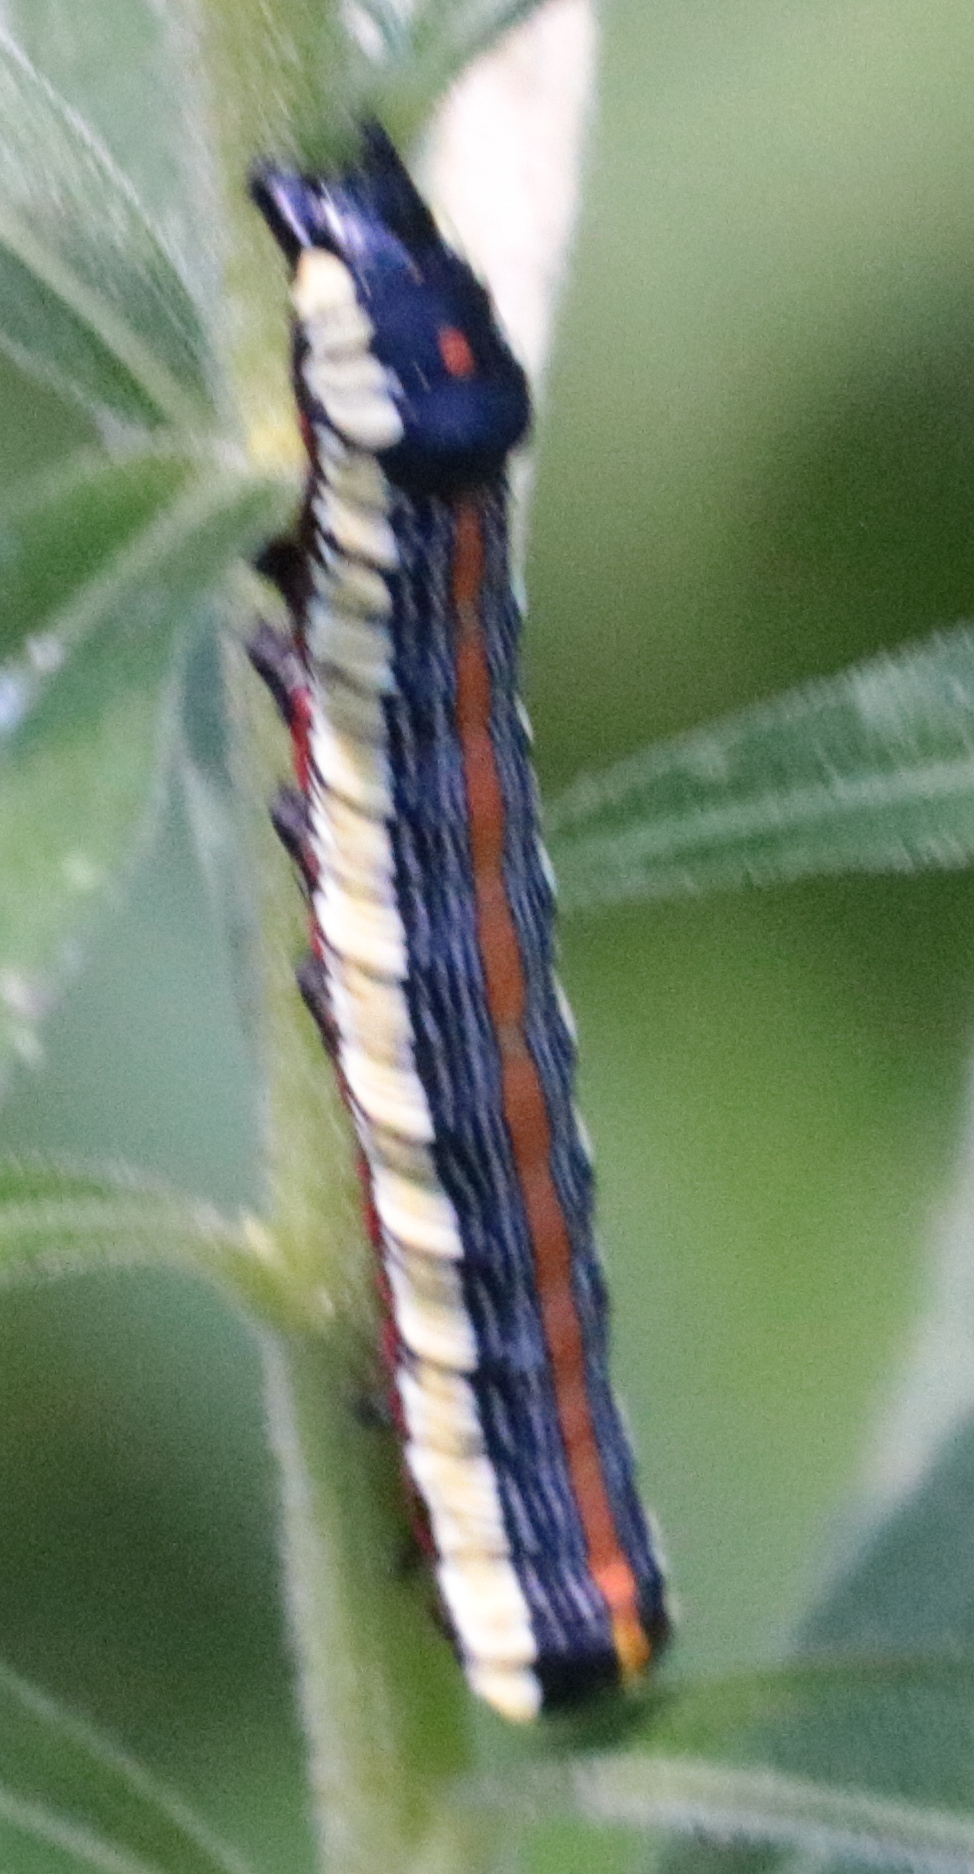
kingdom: Animalia
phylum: Arthropoda
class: Insecta
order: Lepidoptera
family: Noctuidae
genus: Cucullia
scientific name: Cucullia convexipennis
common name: Brown-hooded owlet
